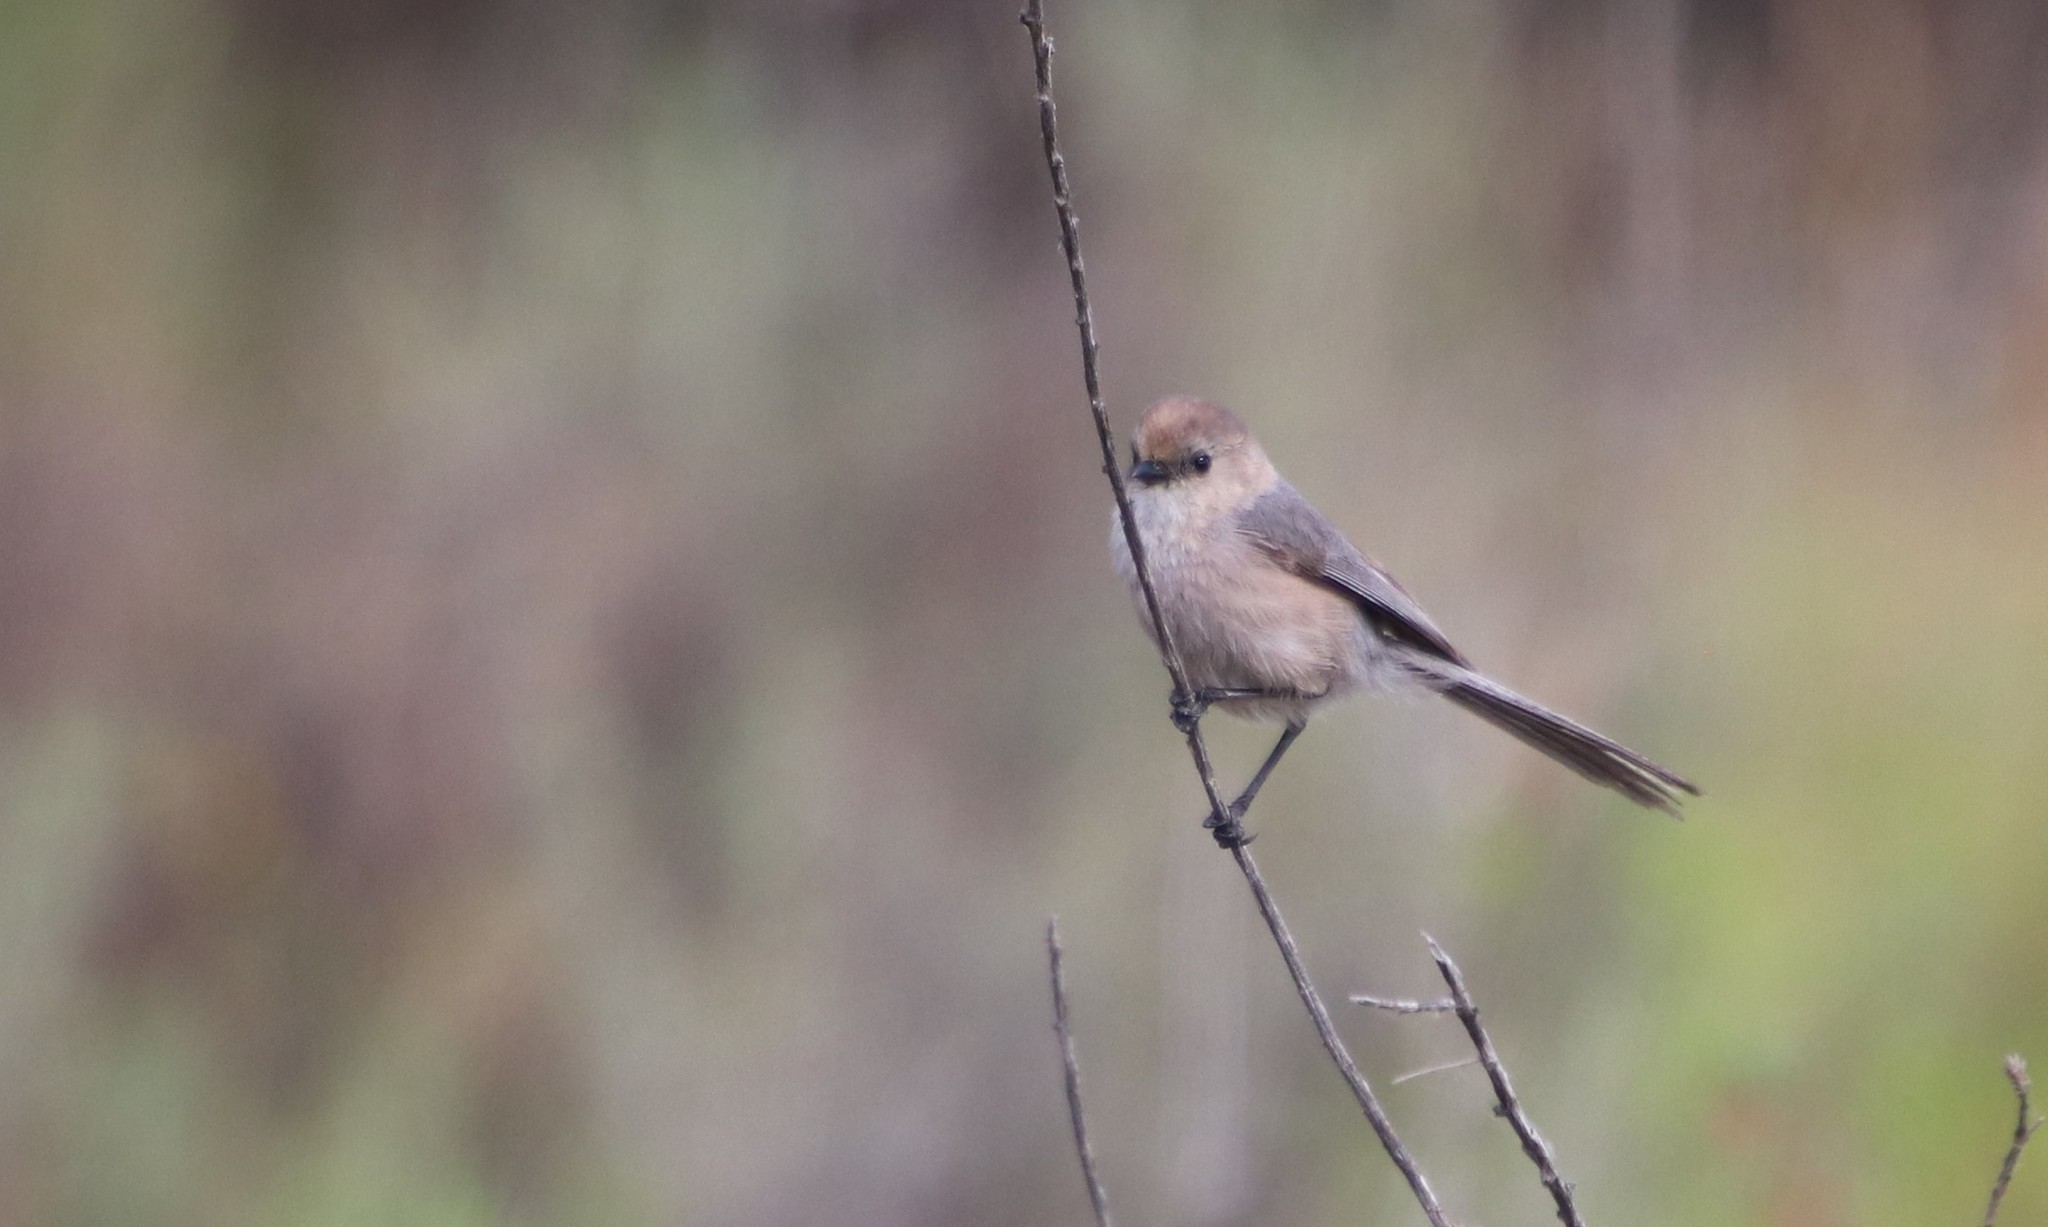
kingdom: Animalia
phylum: Chordata
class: Aves
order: Passeriformes
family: Aegithalidae
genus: Psaltriparus
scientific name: Psaltriparus minimus
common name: American bushtit
